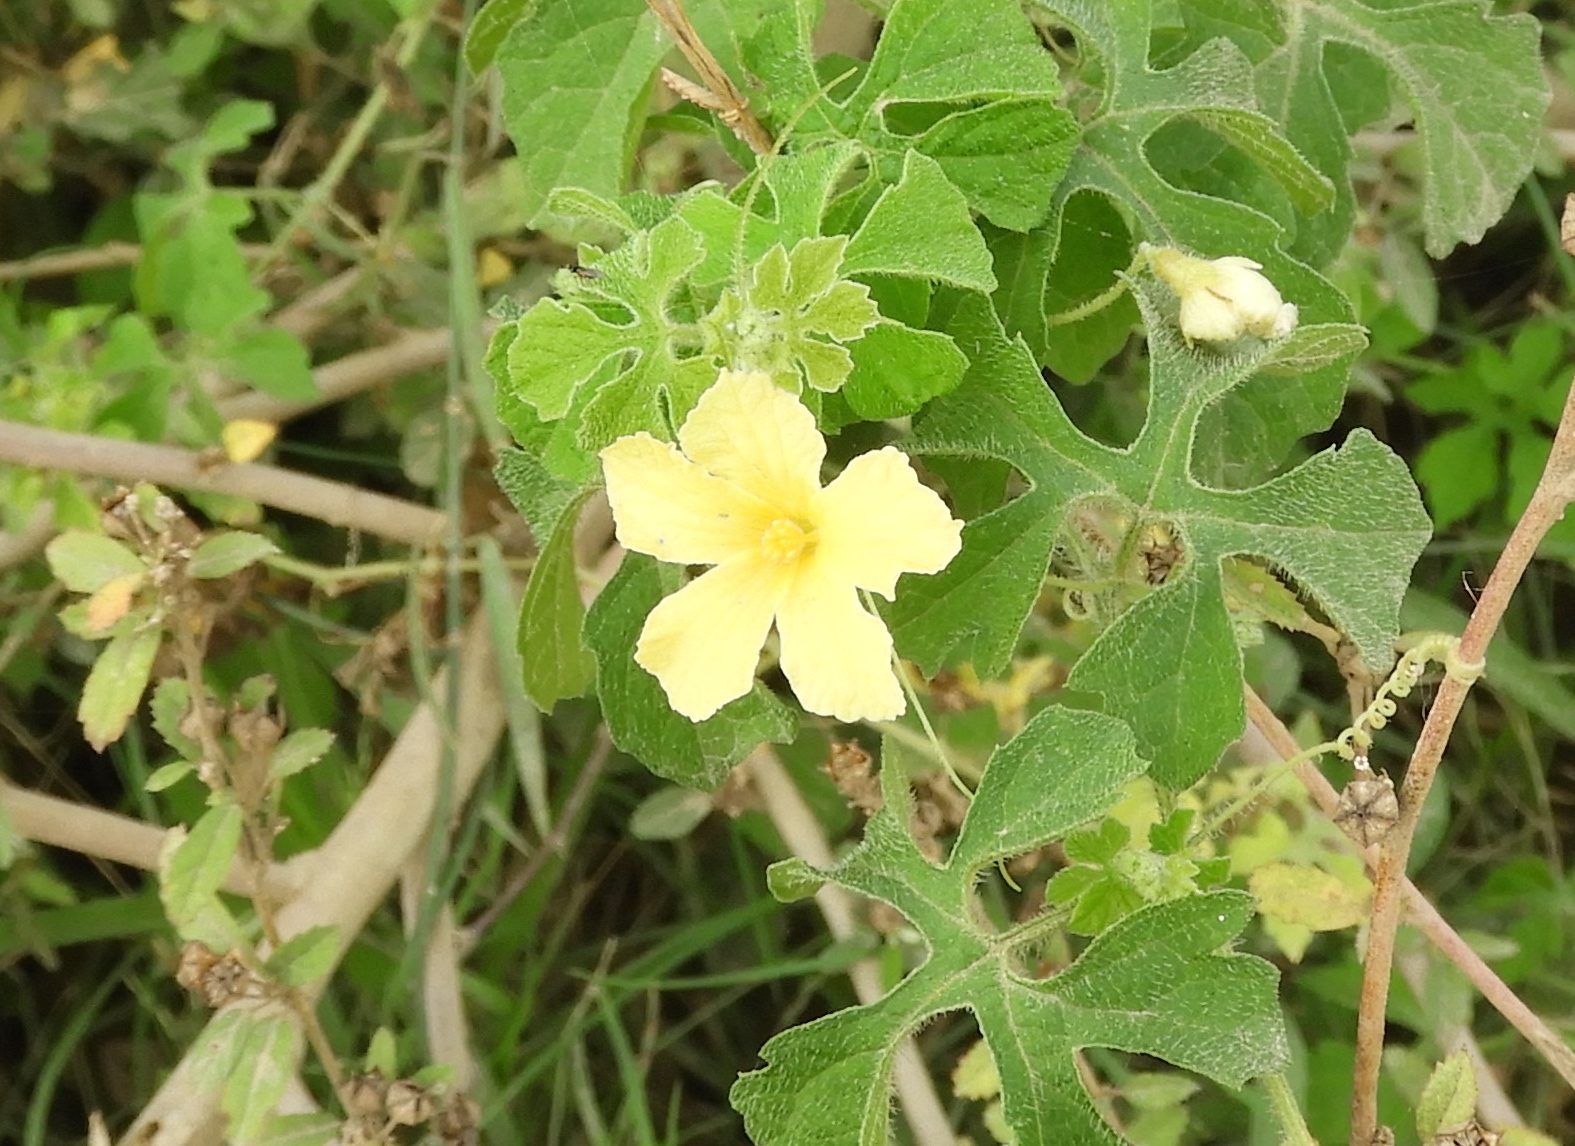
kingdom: Plantae
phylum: Tracheophyta
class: Magnoliopsida
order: Cucurbitales
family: Cucurbitaceae
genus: Momordica
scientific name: Momordica charantia
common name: Balsampear
